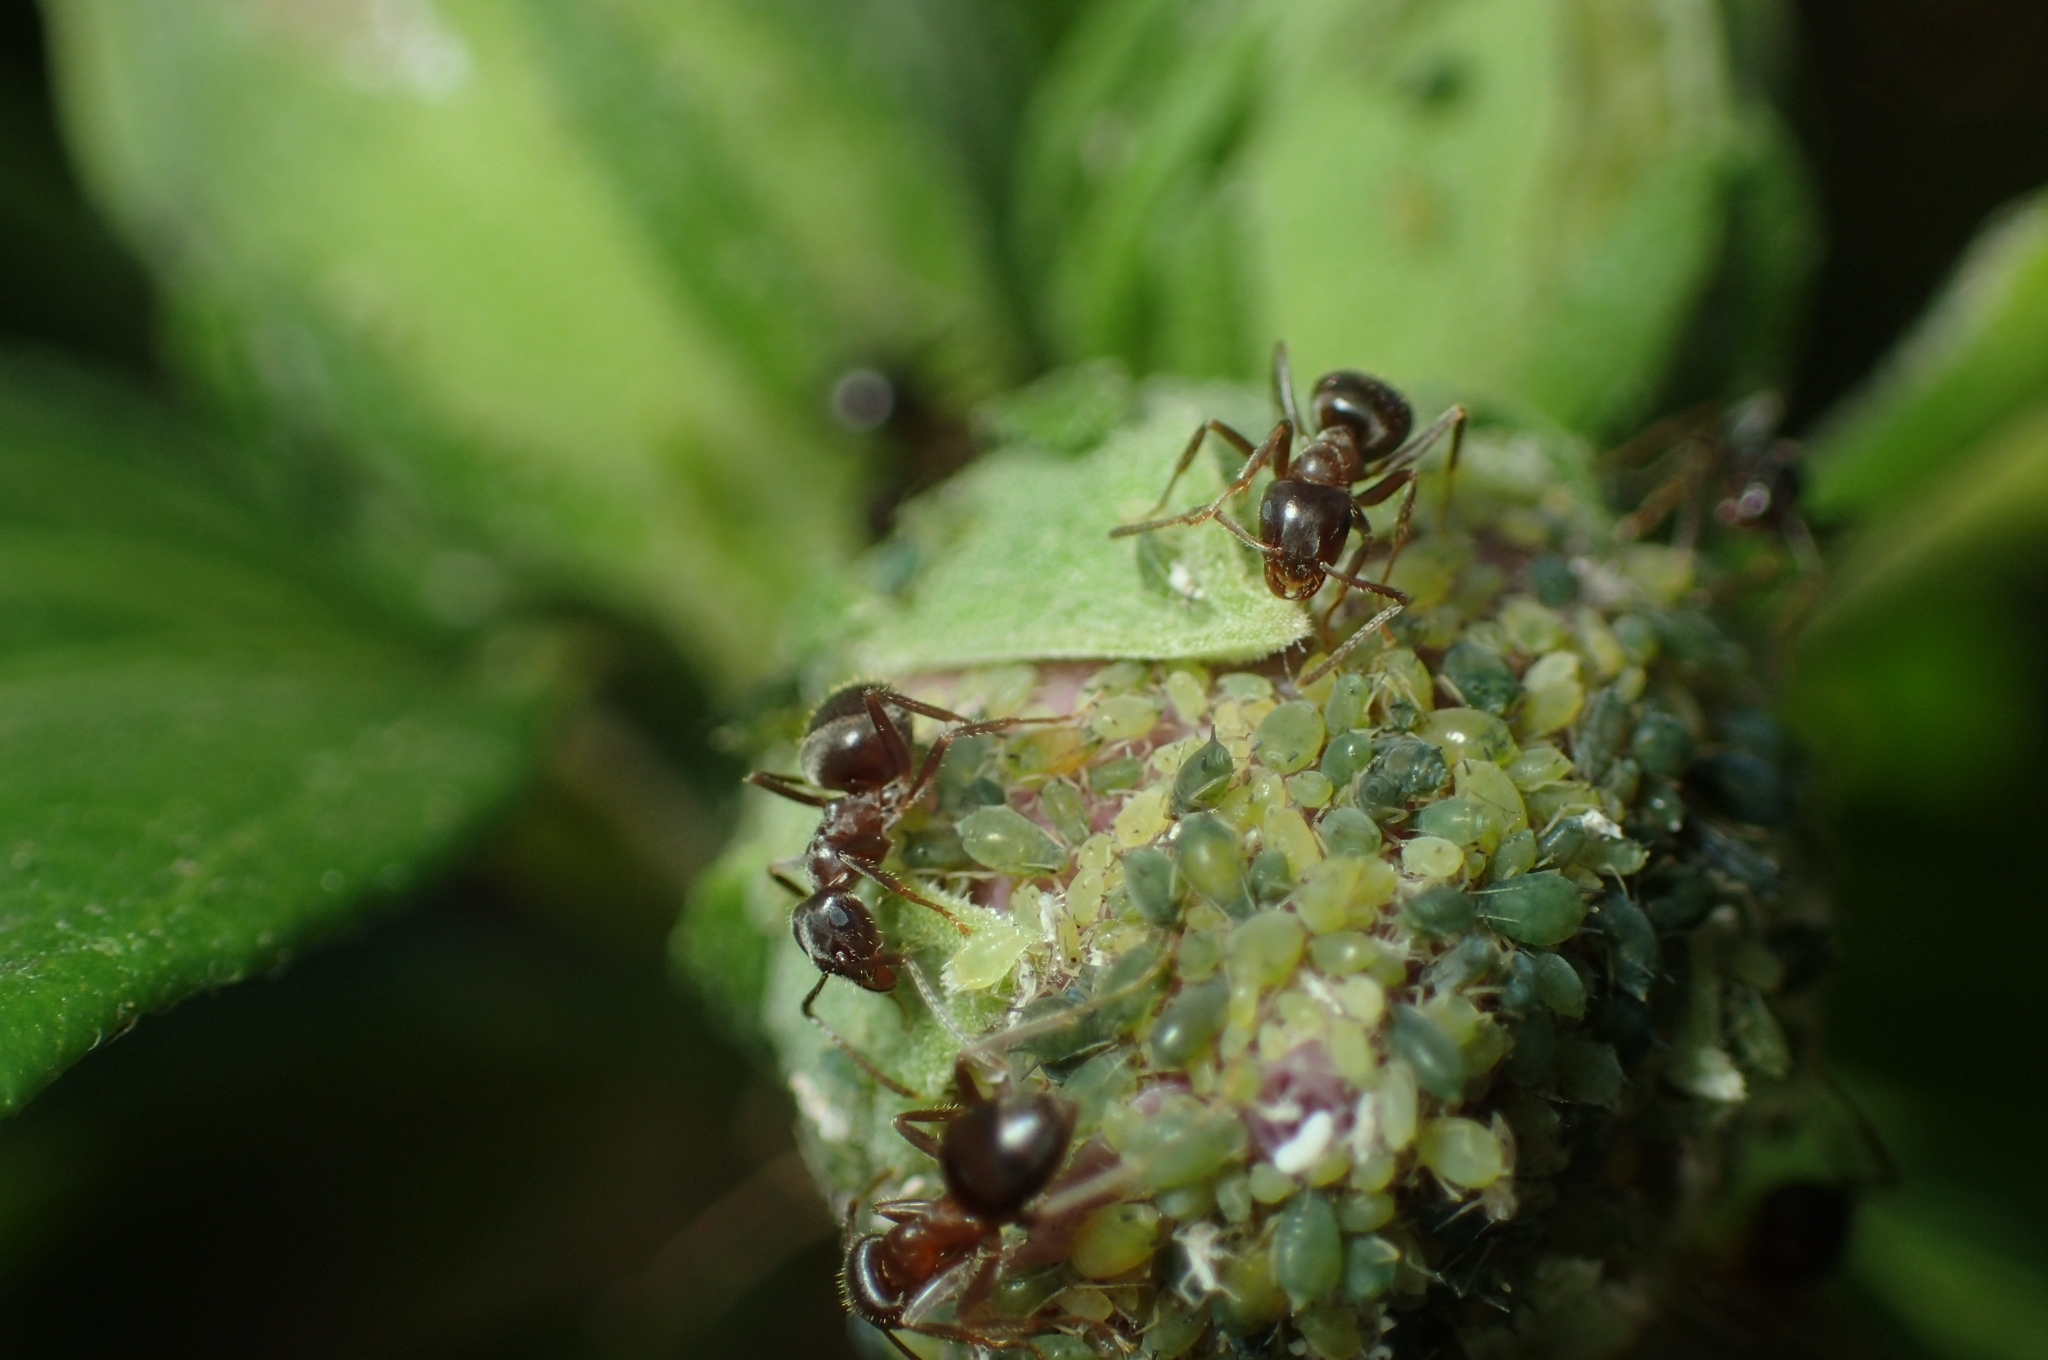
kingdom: Animalia
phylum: Arthropoda
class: Insecta
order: Hemiptera
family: Aphididae
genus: Aphis
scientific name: Aphis gossypii
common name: Melon aphid
